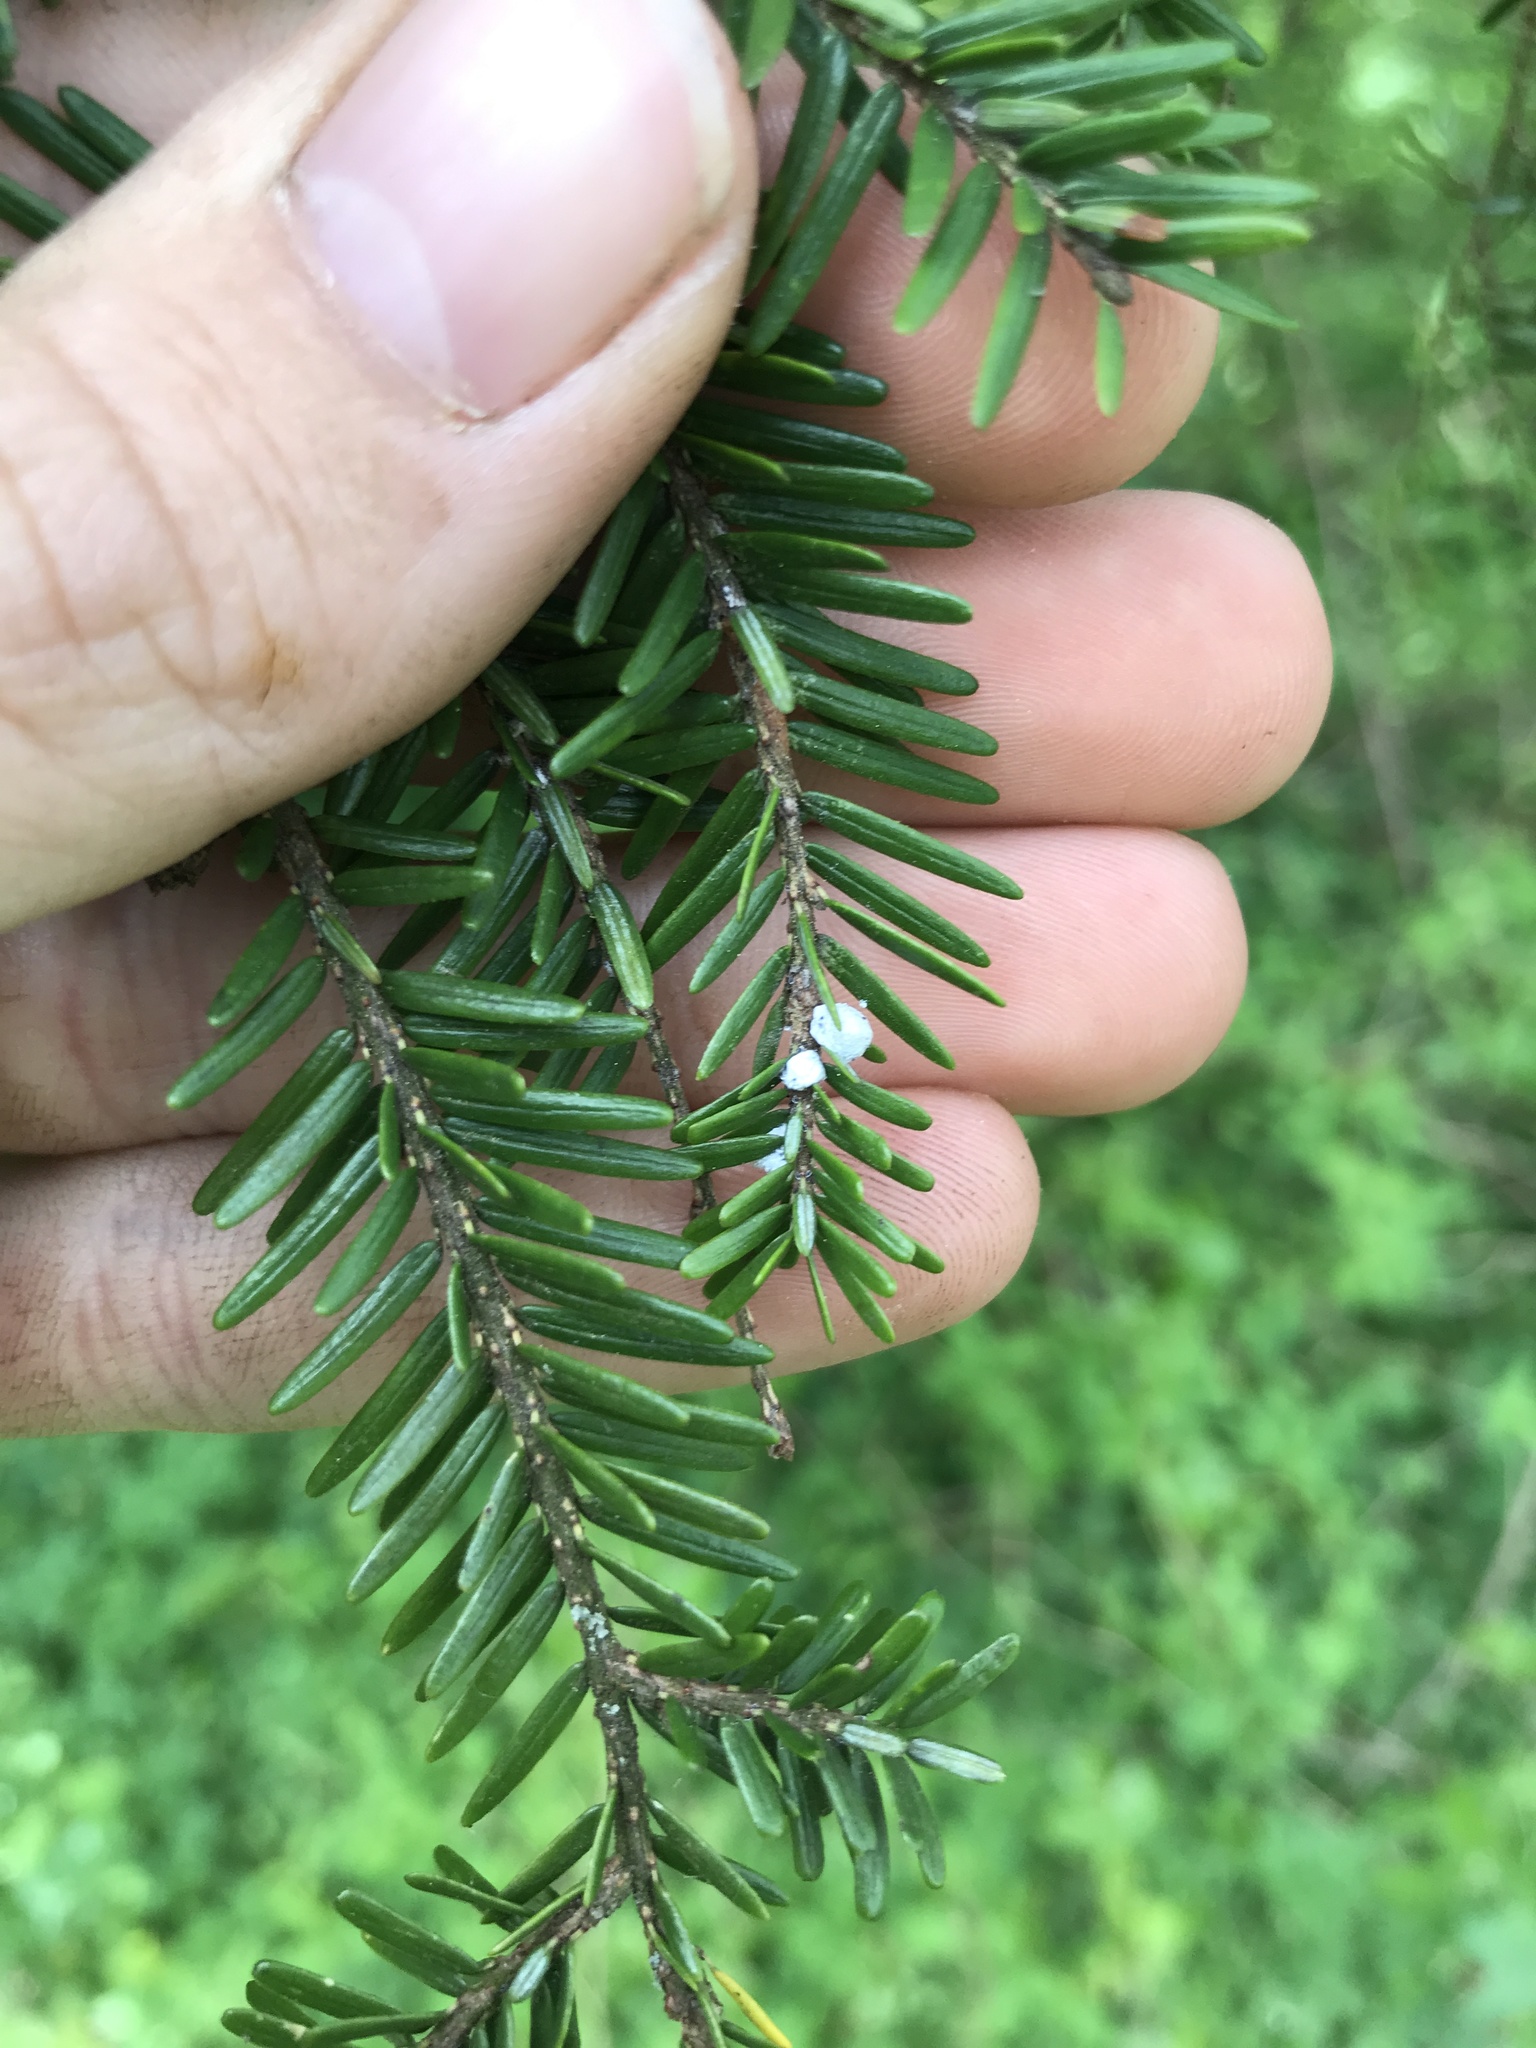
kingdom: Animalia
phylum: Arthropoda
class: Insecta
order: Hemiptera
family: Adelgidae
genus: Adelges
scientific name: Adelges tsugae
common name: Hemlock woolly adelgid
